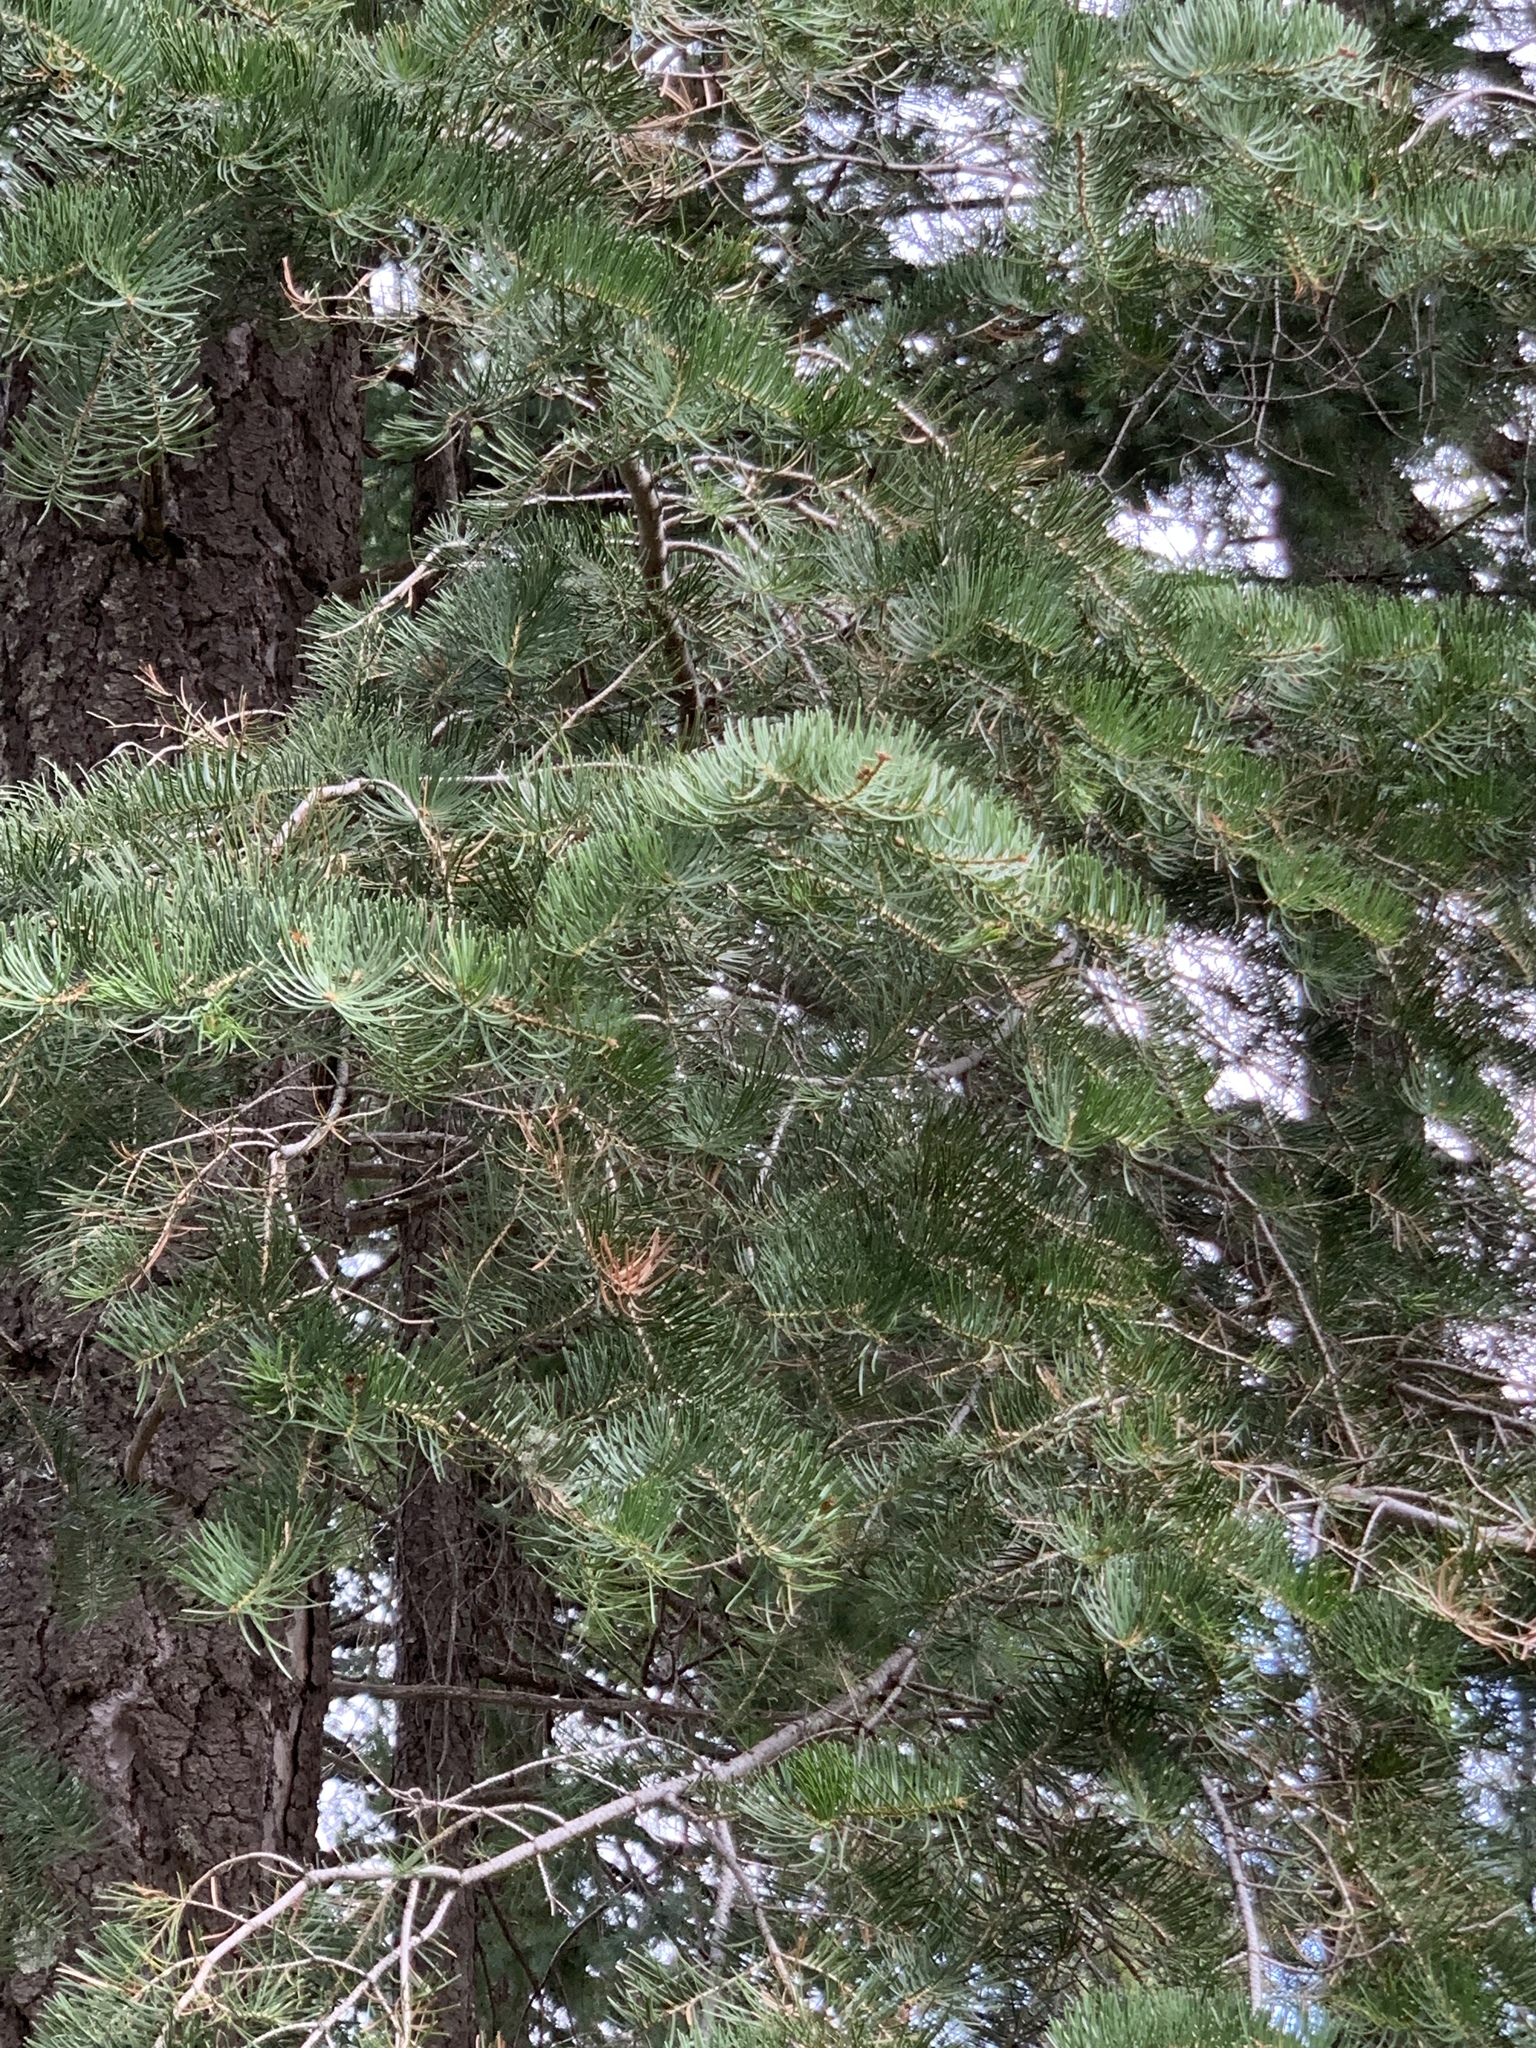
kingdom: Plantae
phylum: Tracheophyta
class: Pinopsida
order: Pinales
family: Pinaceae
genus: Abies
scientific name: Abies concolor
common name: Colorado fir
